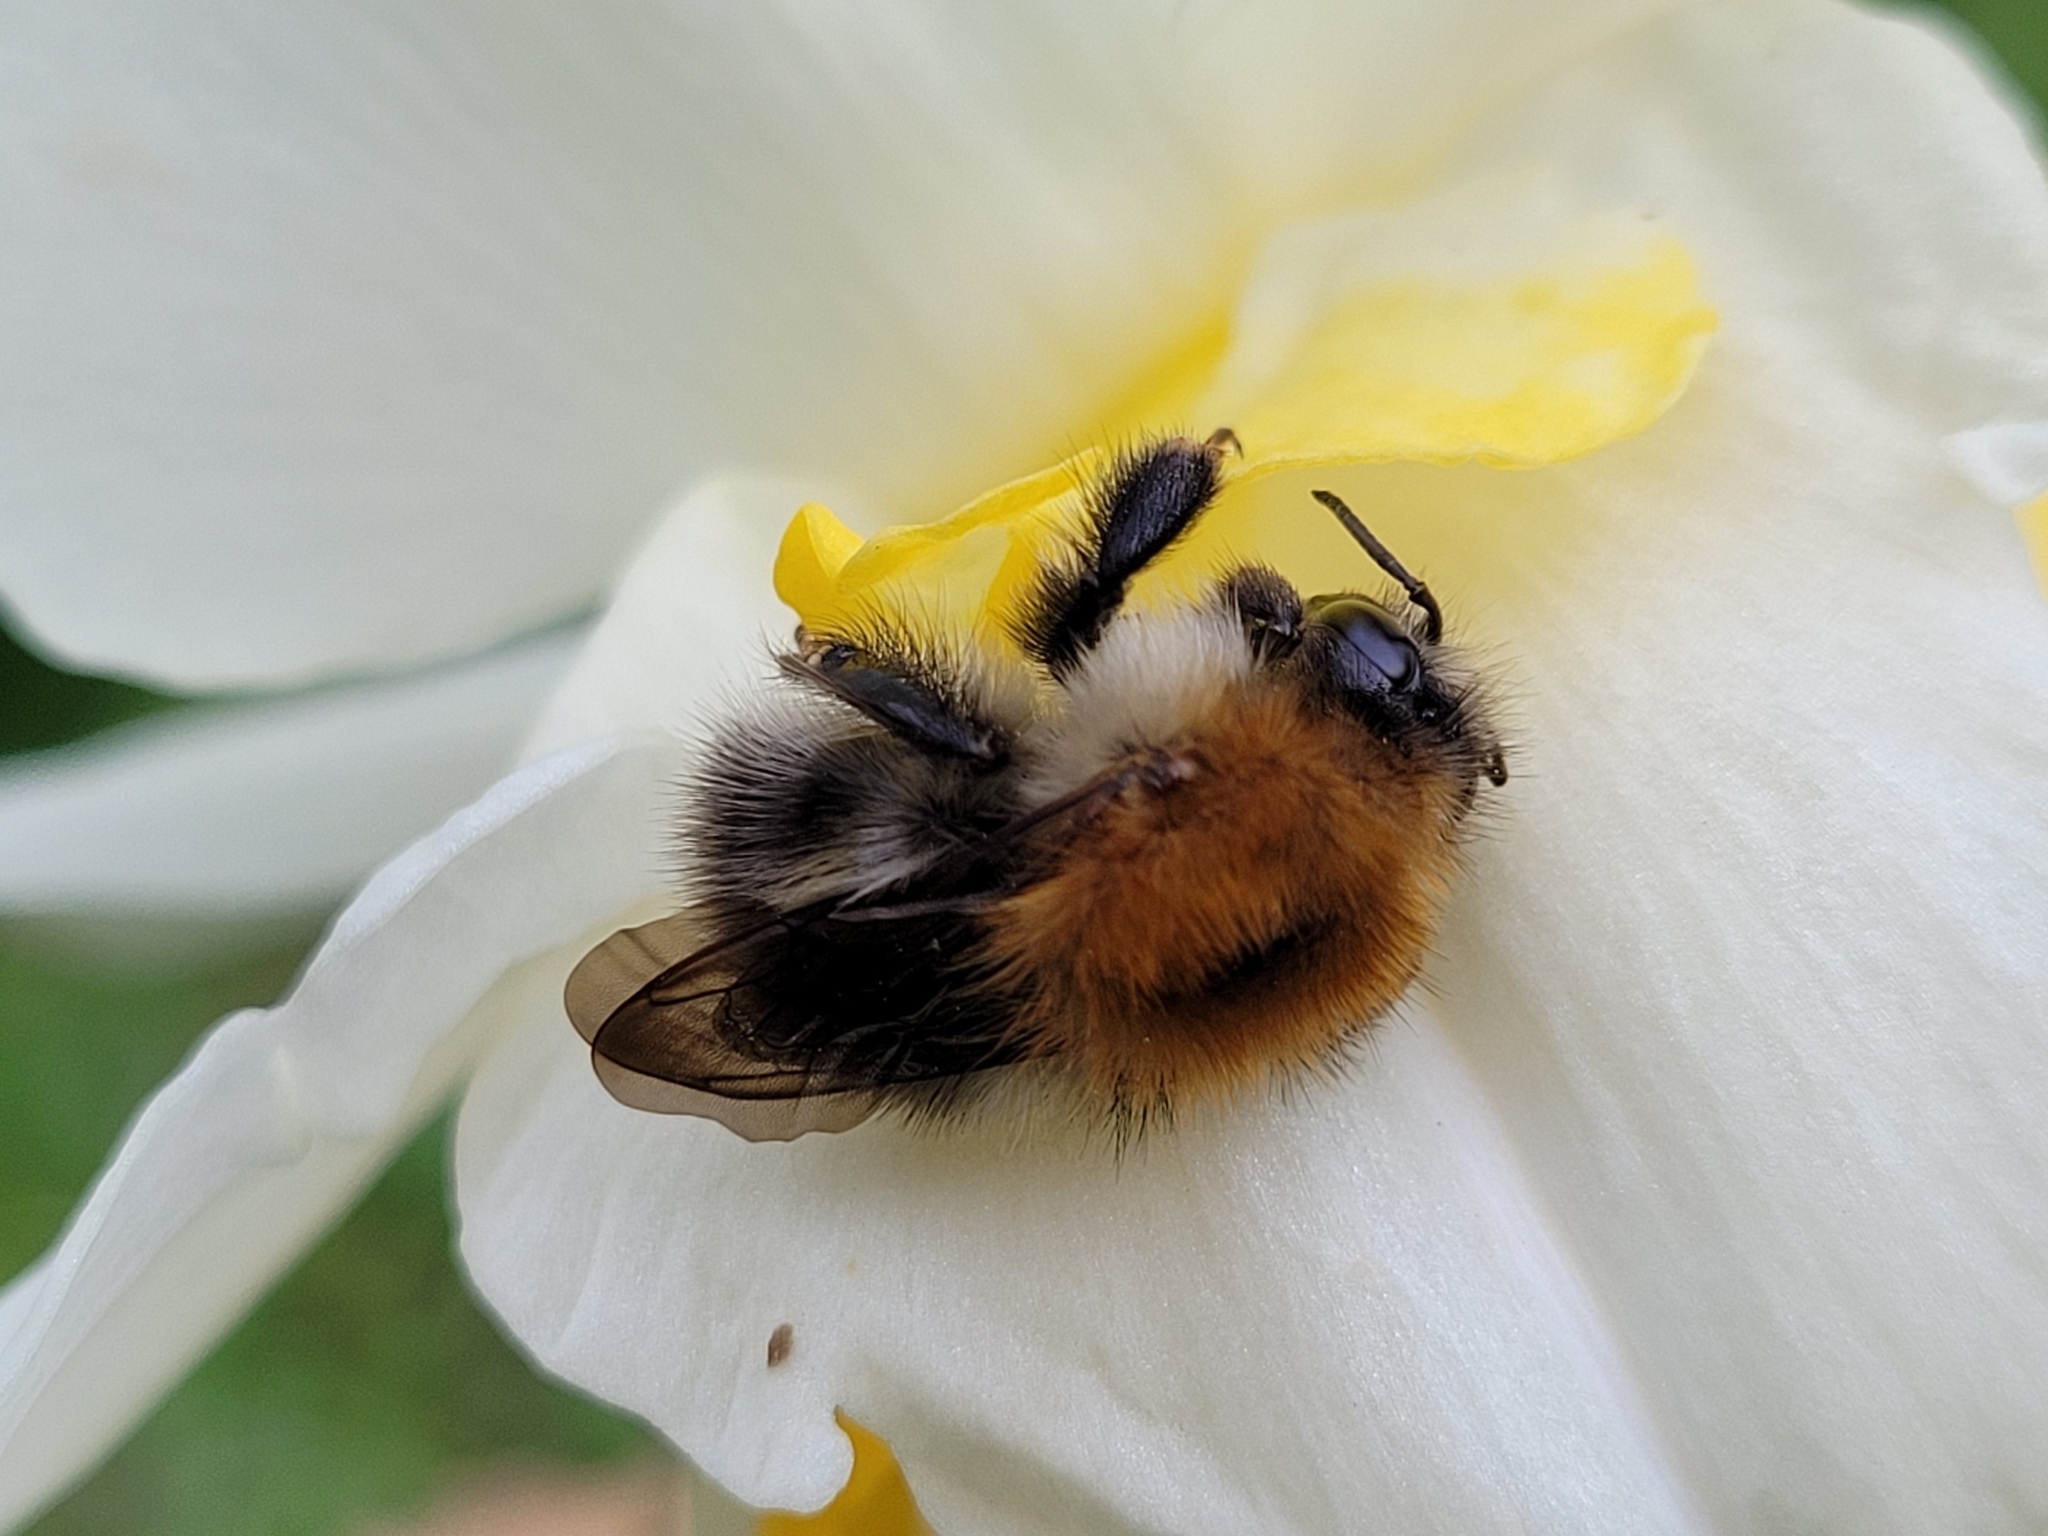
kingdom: Animalia
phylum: Arthropoda
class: Insecta
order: Hymenoptera
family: Apidae
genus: Bombus
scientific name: Bombus pascuorum
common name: Common carder bee
